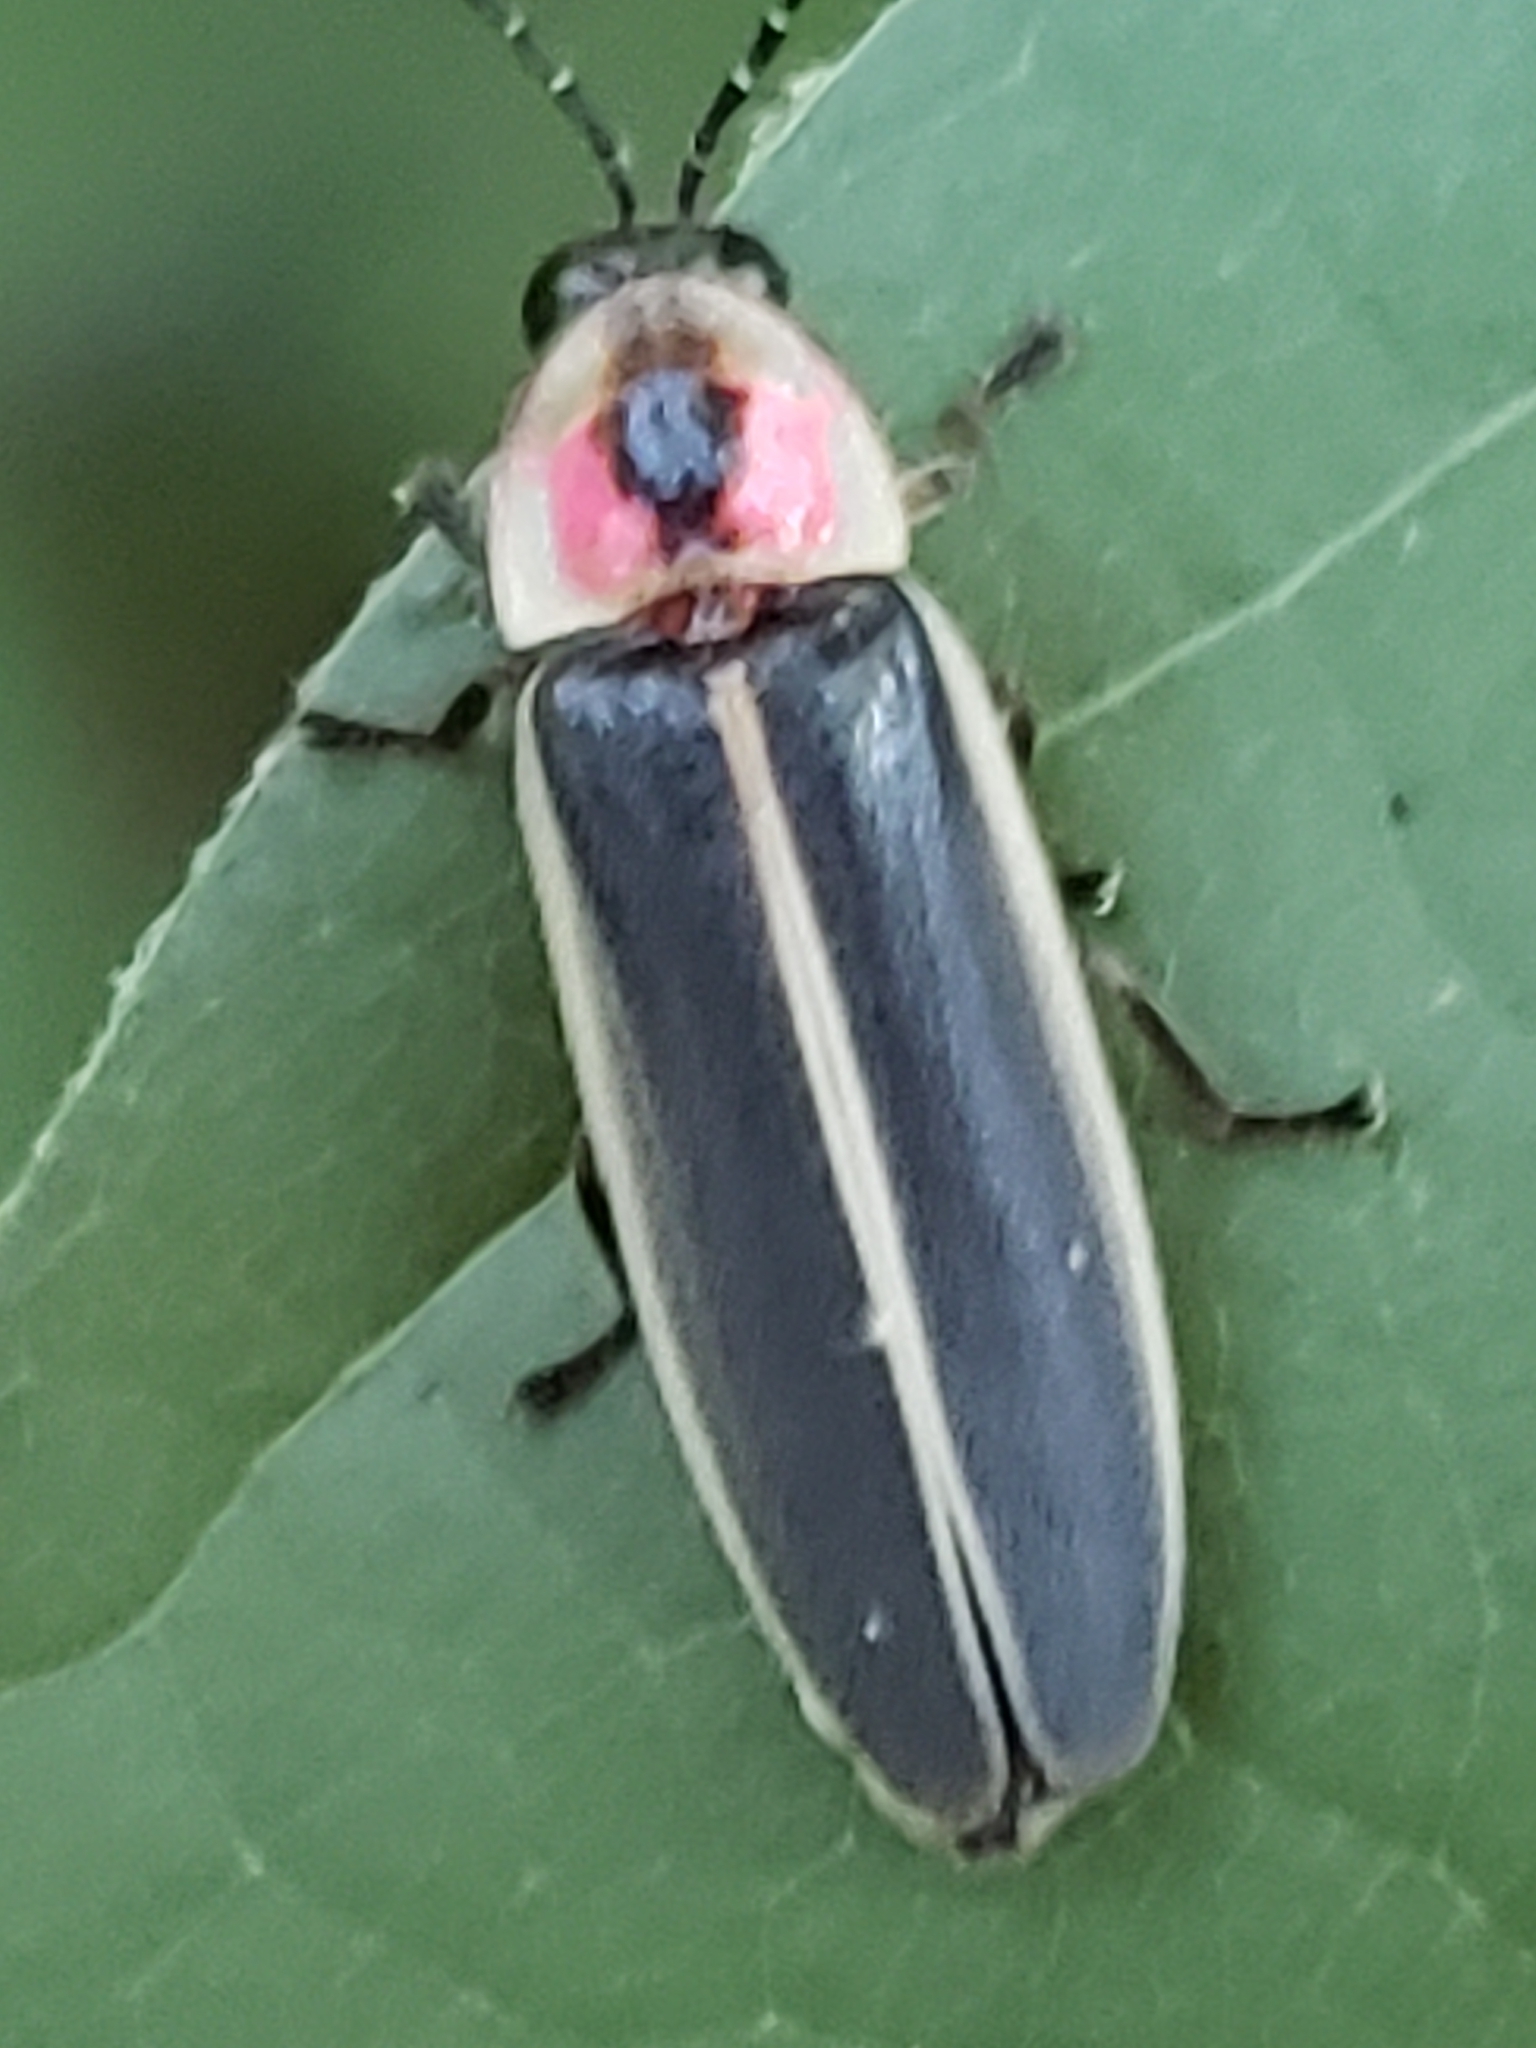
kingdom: Animalia
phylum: Arthropoda
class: Insecta
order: Coleoptera
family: Lampyridae
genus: Photinus
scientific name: Photinus pyralis
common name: Big dipper firefly
